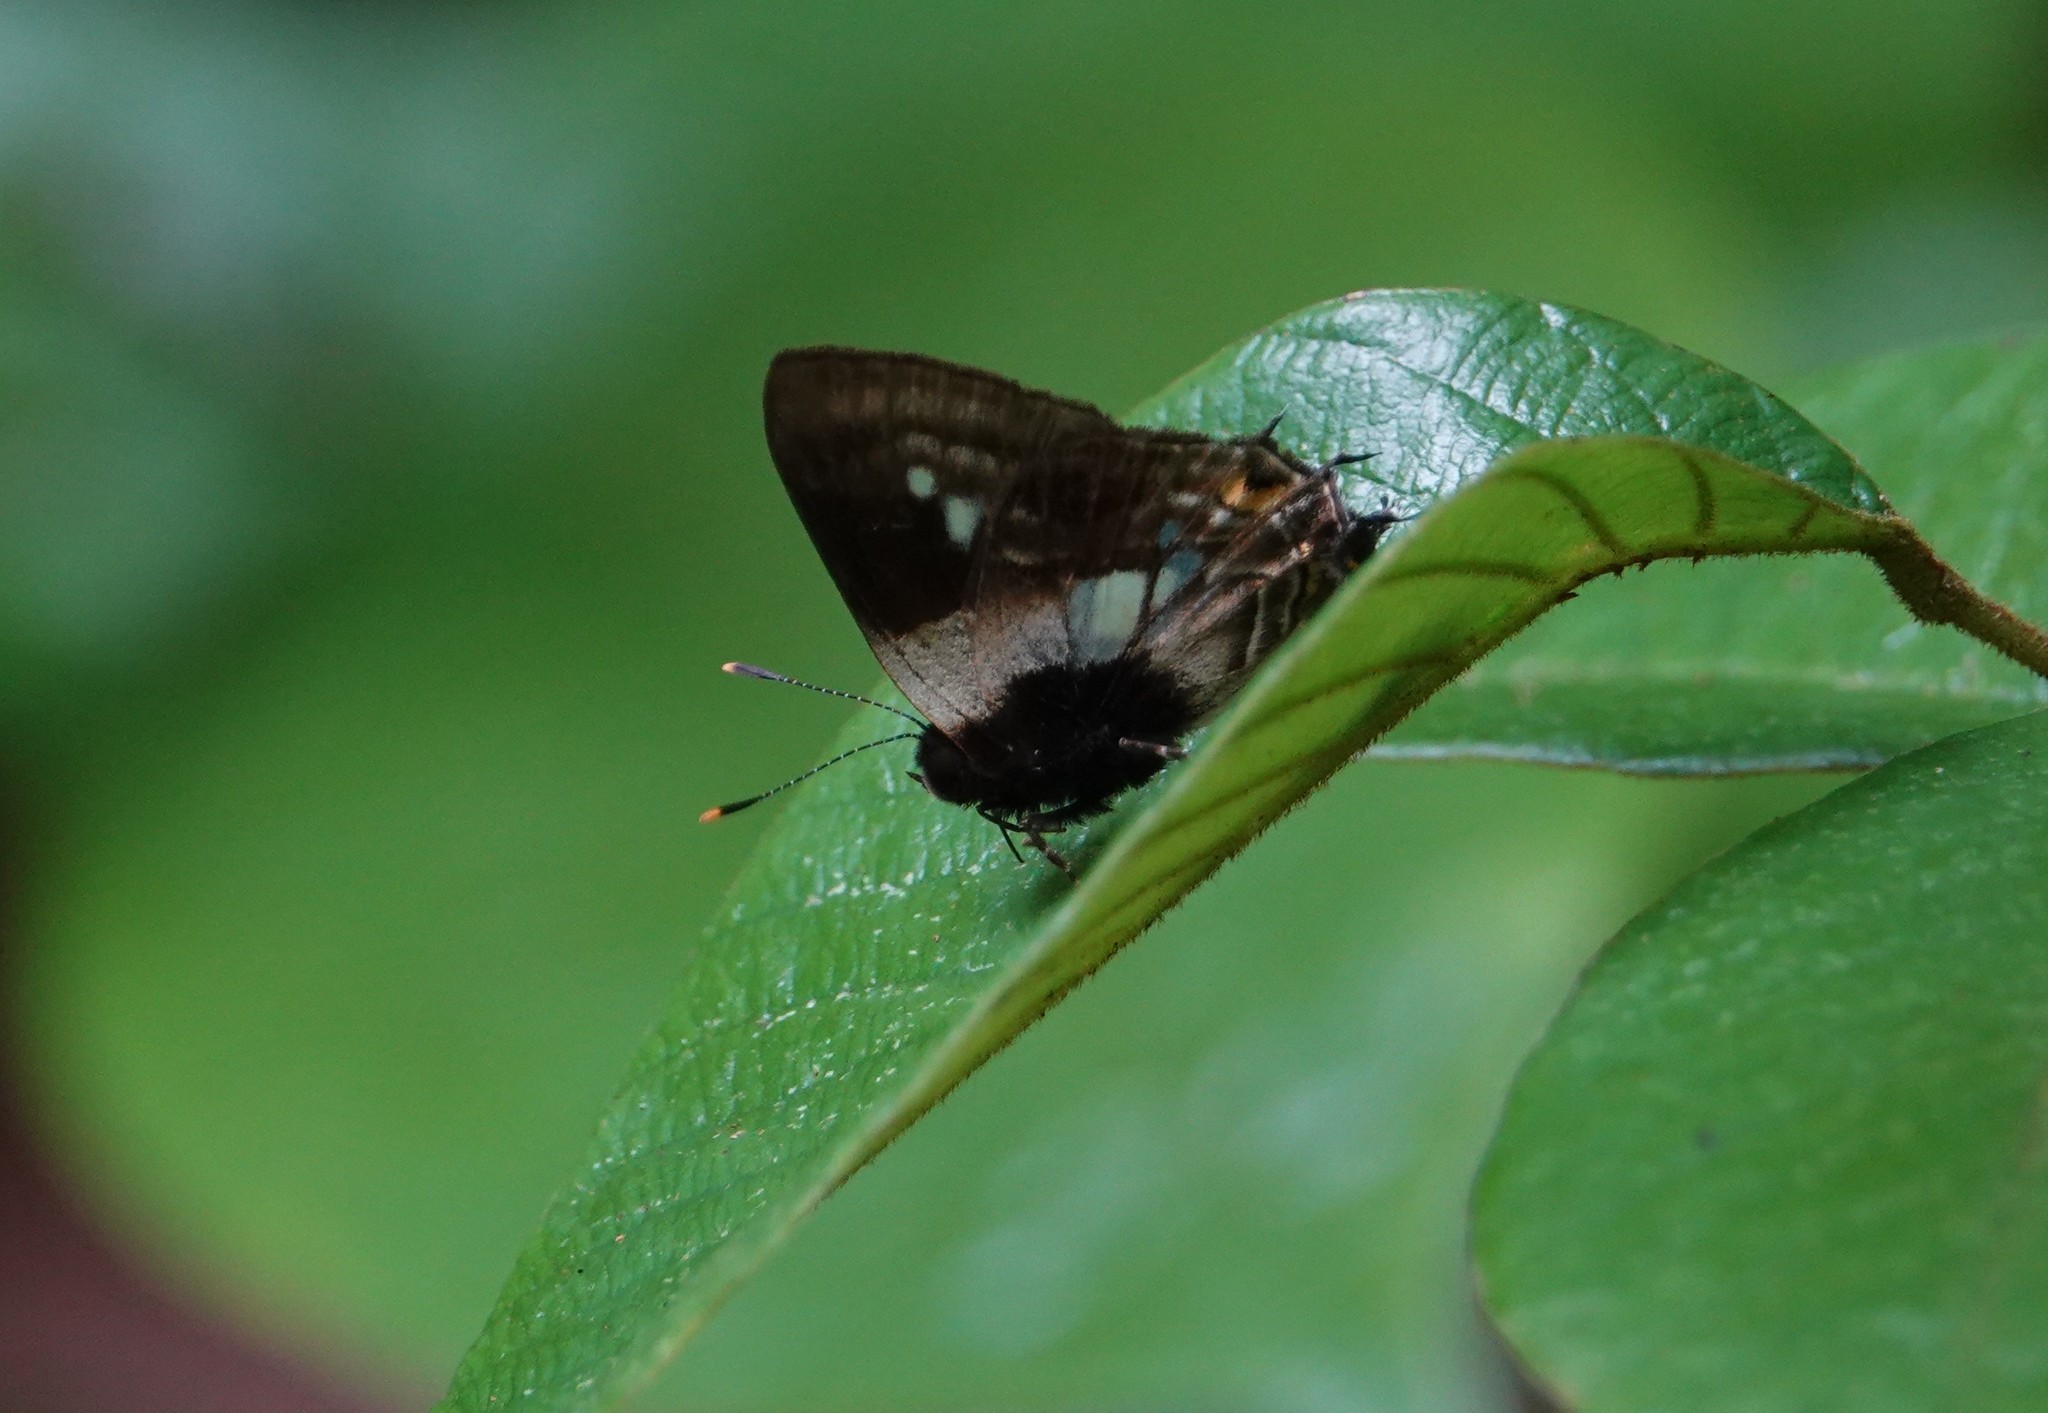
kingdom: Animalia
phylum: Arthropoda
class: Insecta
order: Lepidoptera
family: Lycaenidae
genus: Lamprospilus
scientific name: Lamprospilus genius
